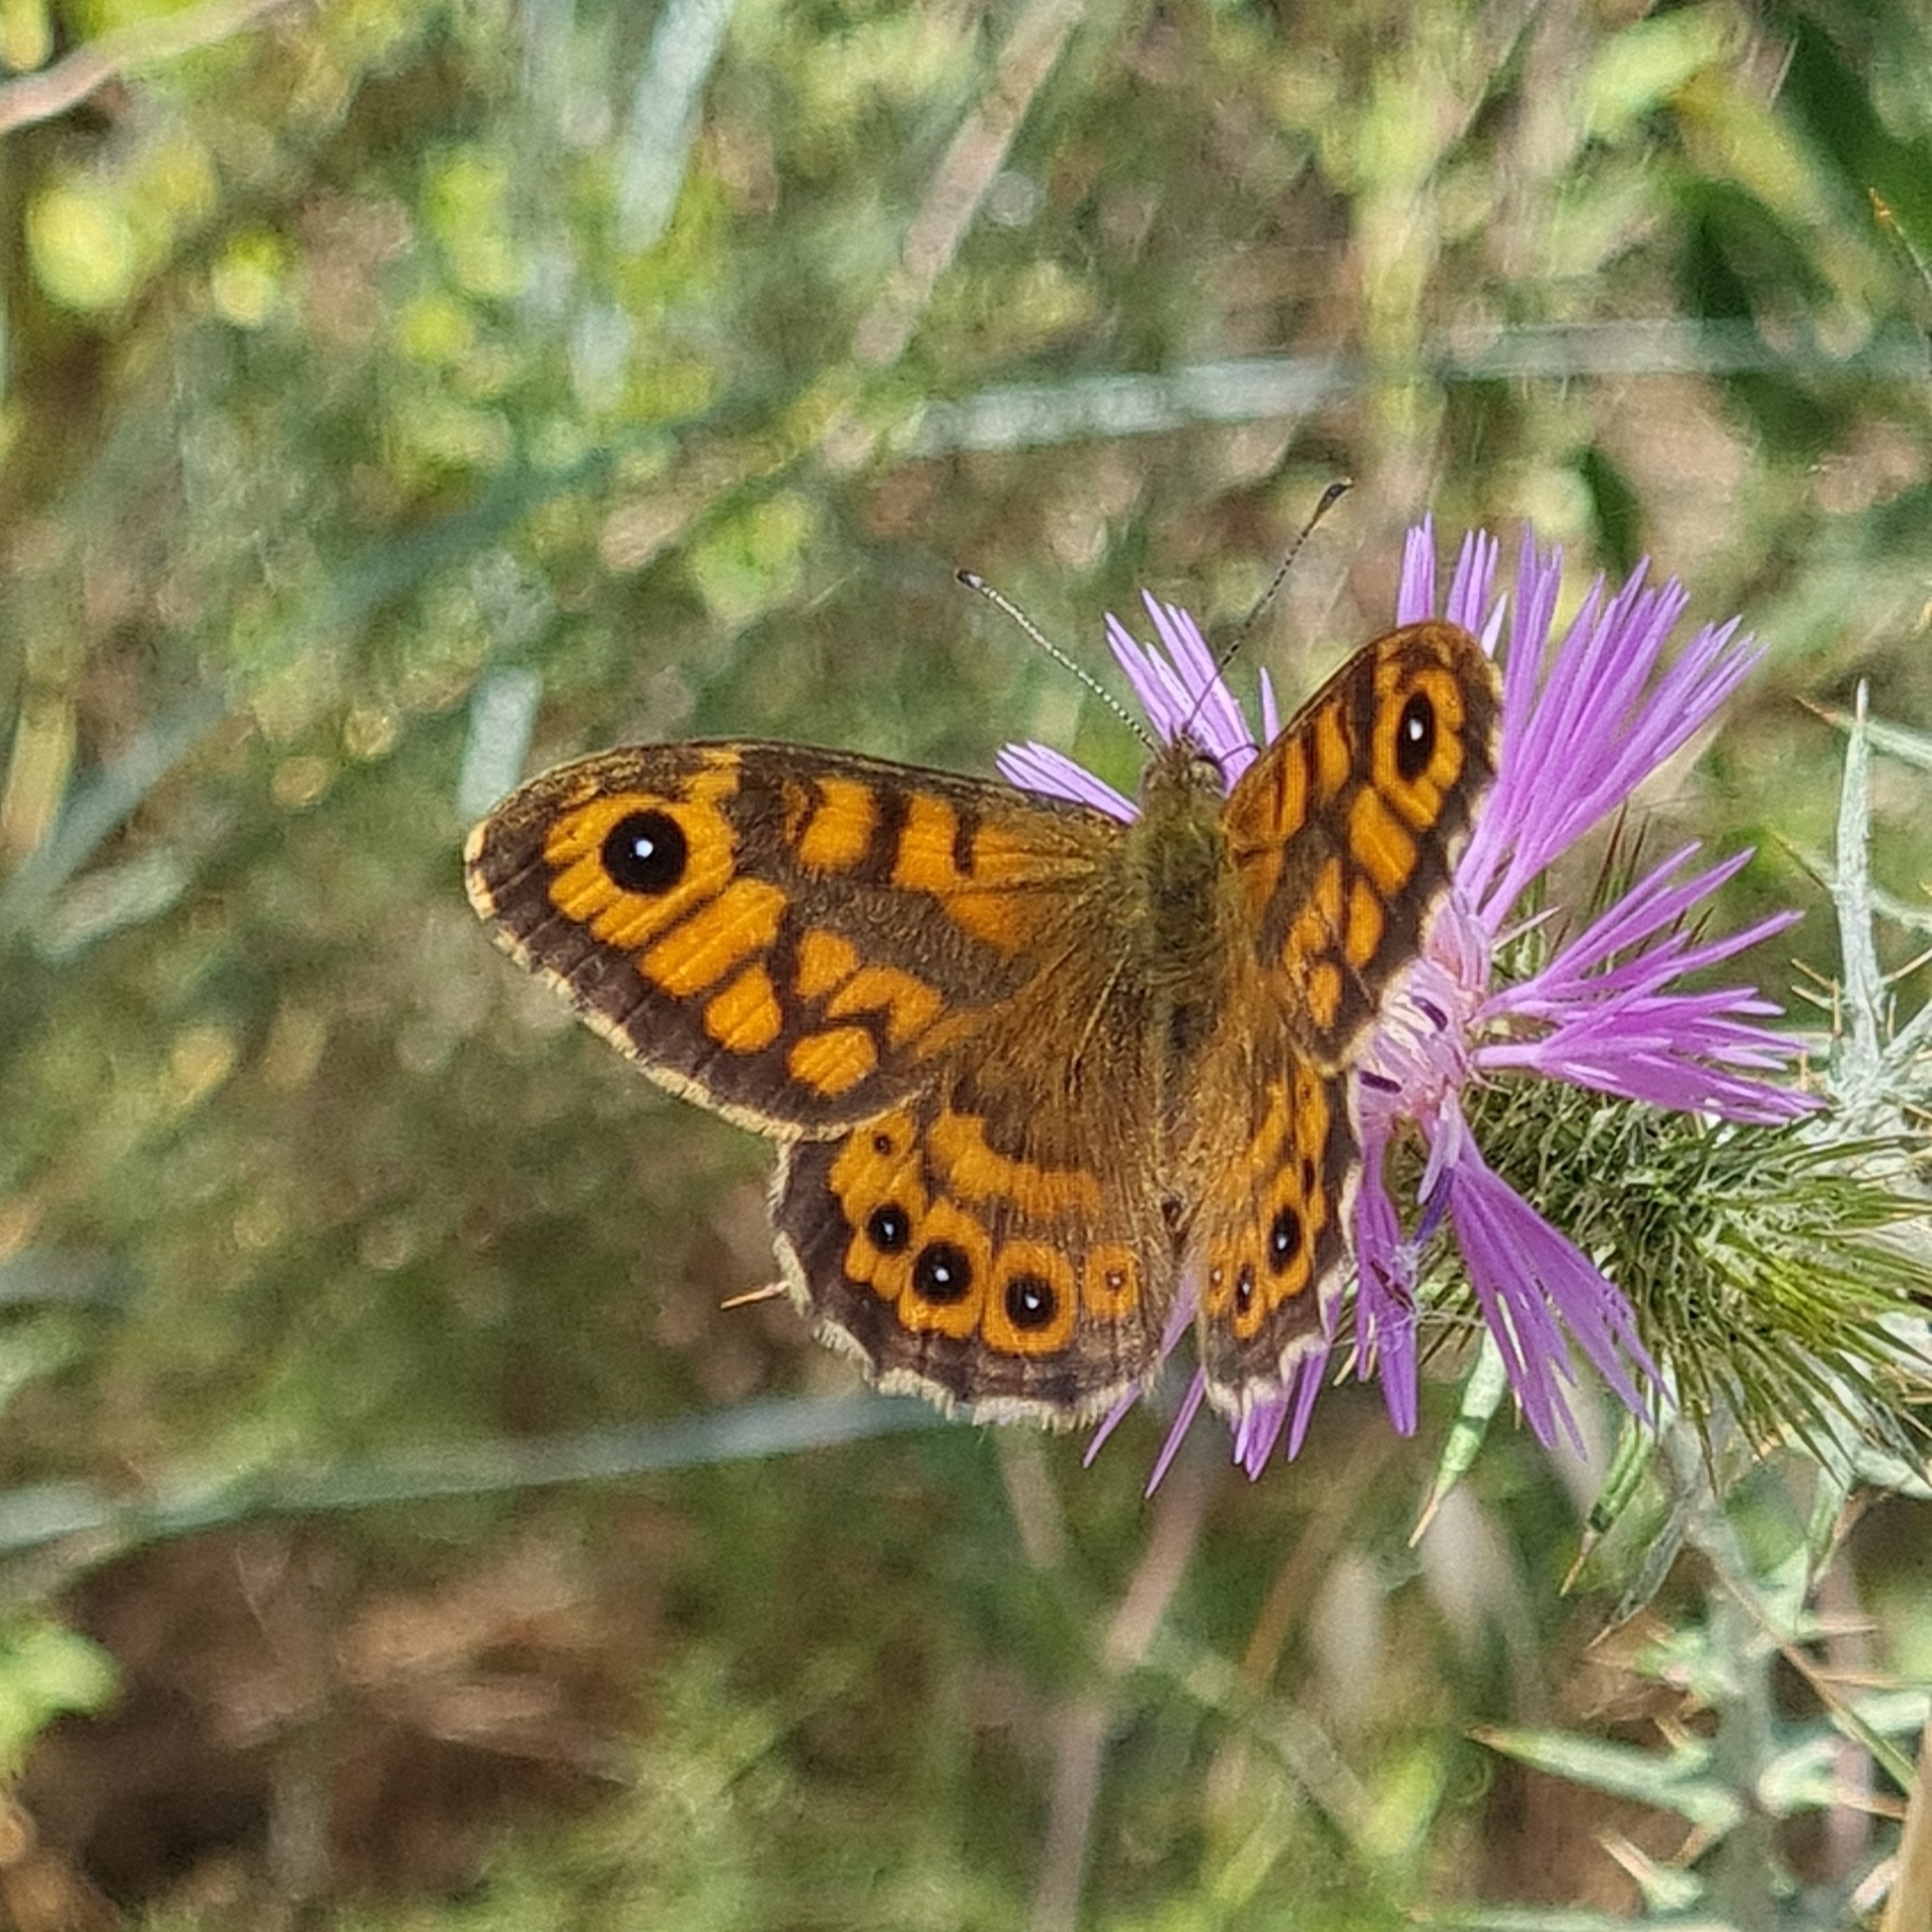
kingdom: Animalia
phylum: Arthropoda
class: Insecta
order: Lepidoptera
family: Nymphalidae
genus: Pararge
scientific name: Pararge Lasiommata megera
